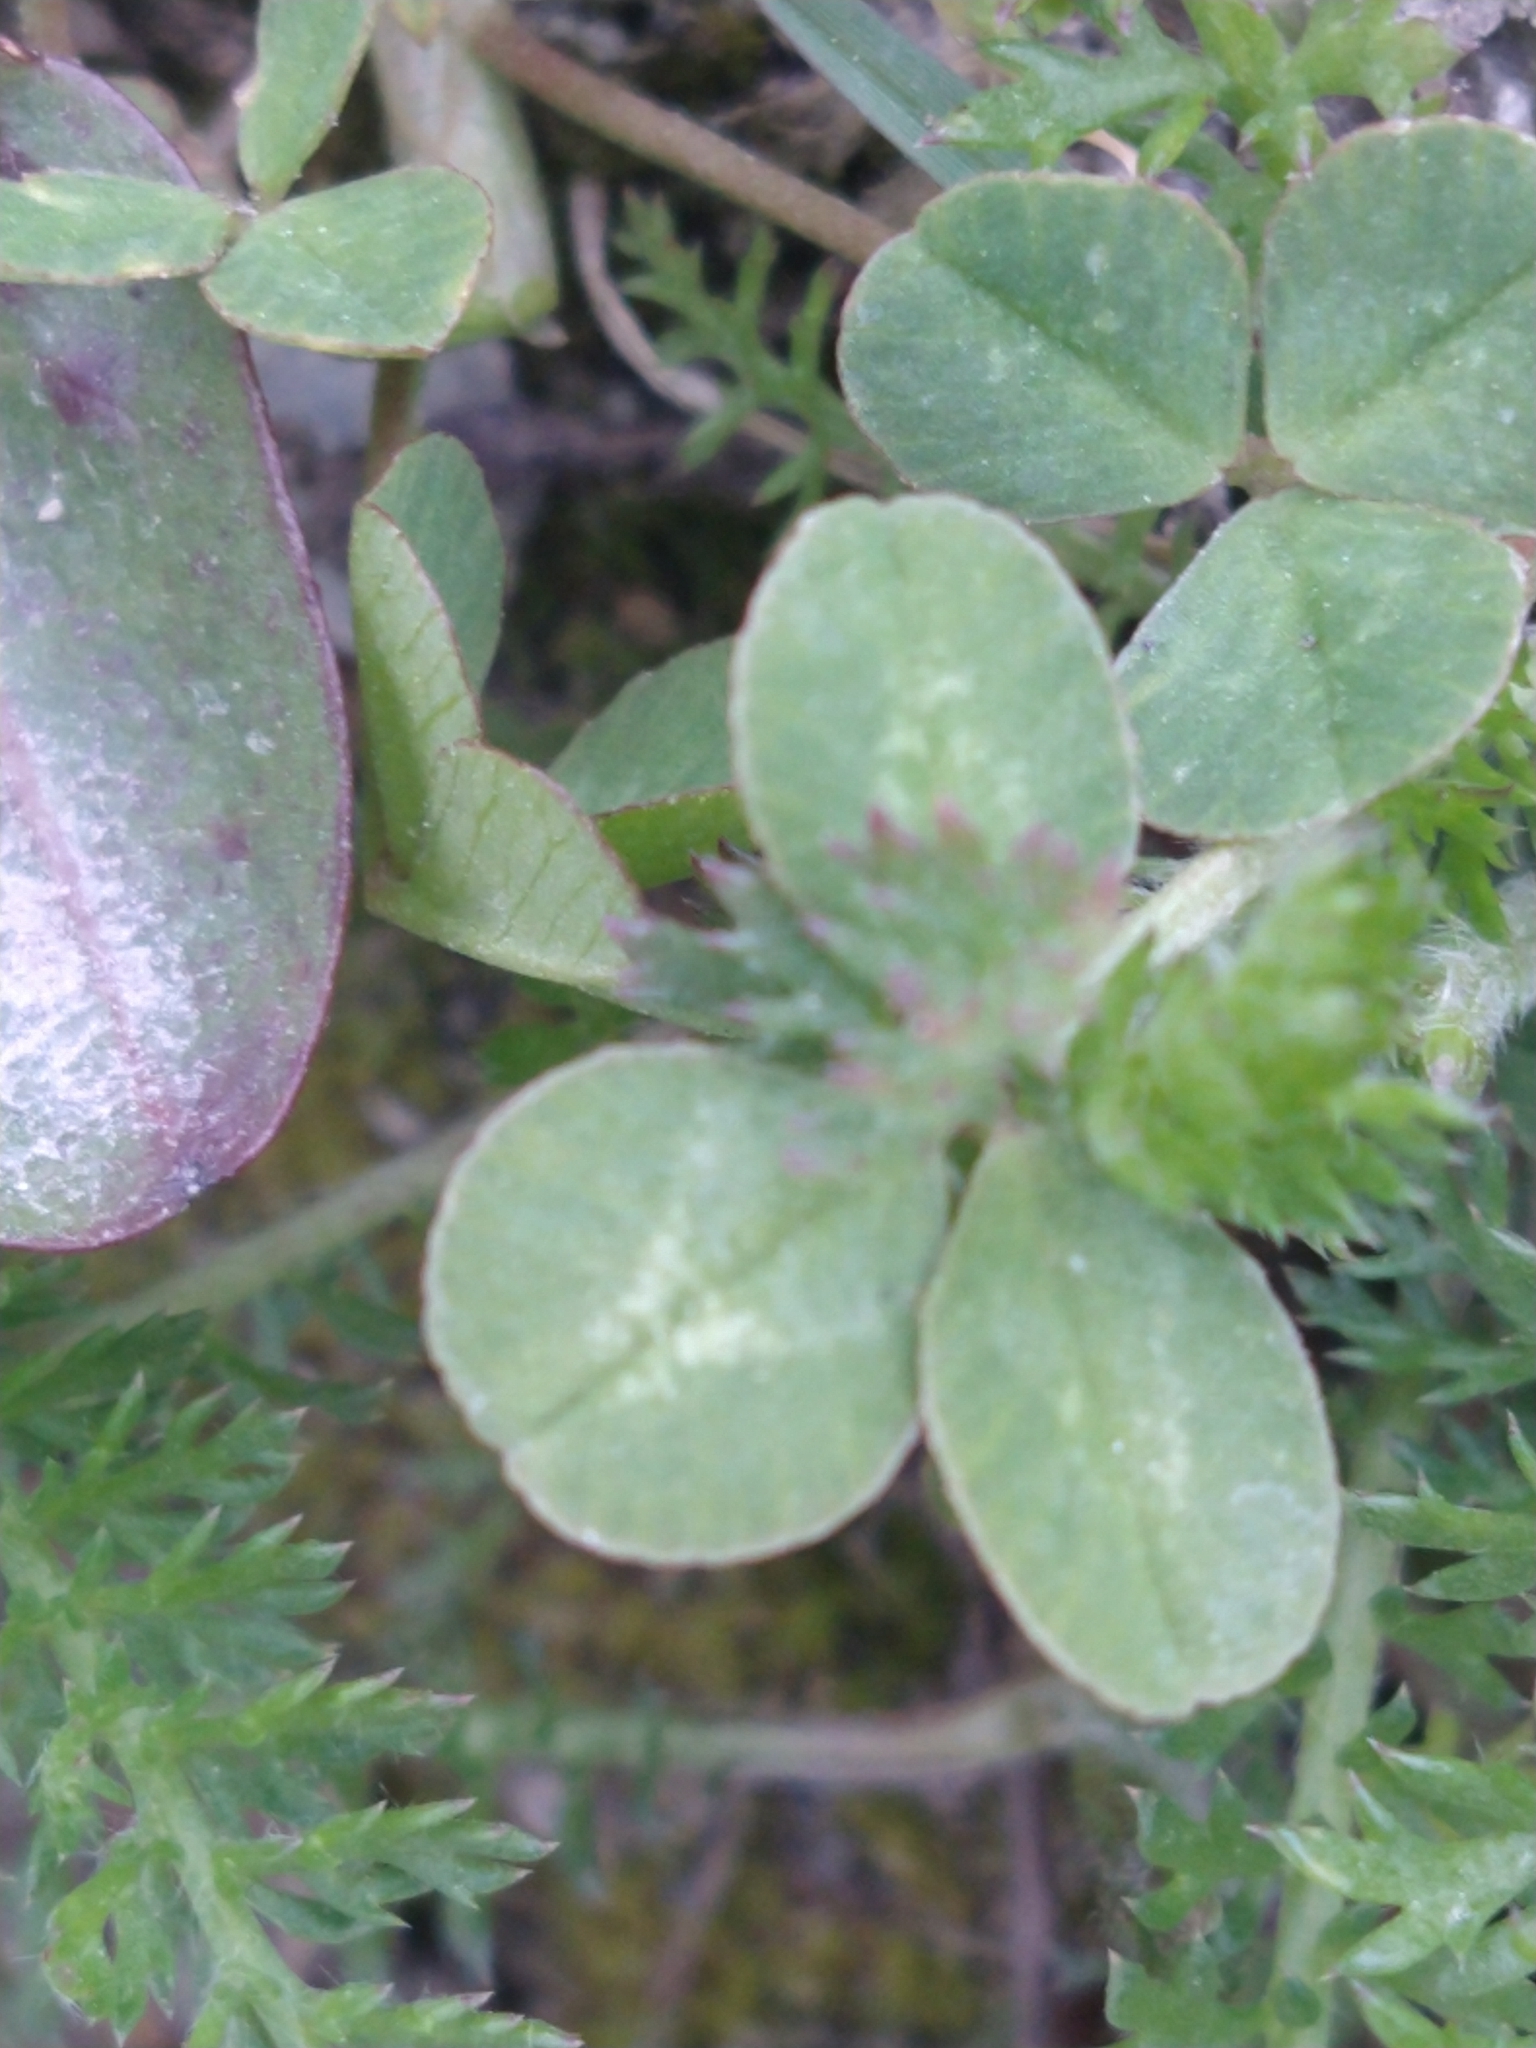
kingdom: Plantae
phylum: Tracheophyta
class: Magnoliopsida
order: Fabales
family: Fabaceae
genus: Trifolium
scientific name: Trifolium repens
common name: White clover
